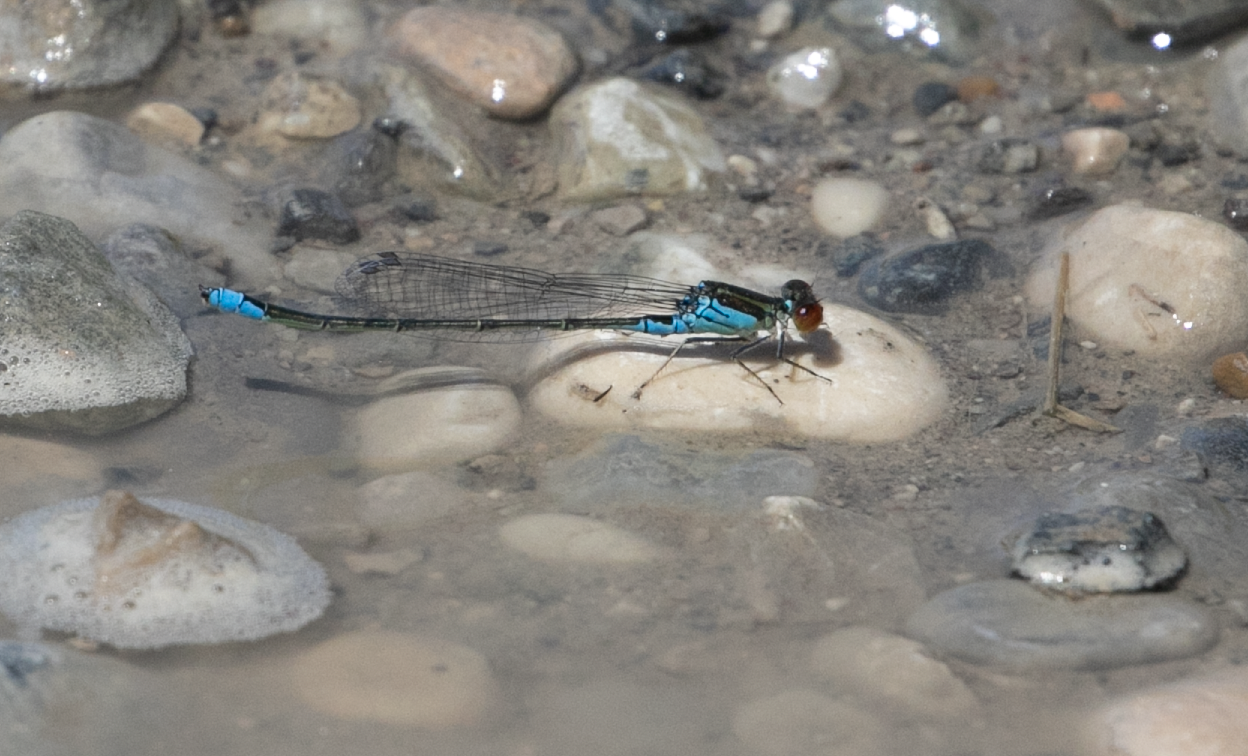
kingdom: Animalia
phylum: Arthropoda
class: Insecta
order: Odonata
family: Coenagrionidae
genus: Erythromma
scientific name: Erythromma viridulum
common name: Small red-eyed damselfly
